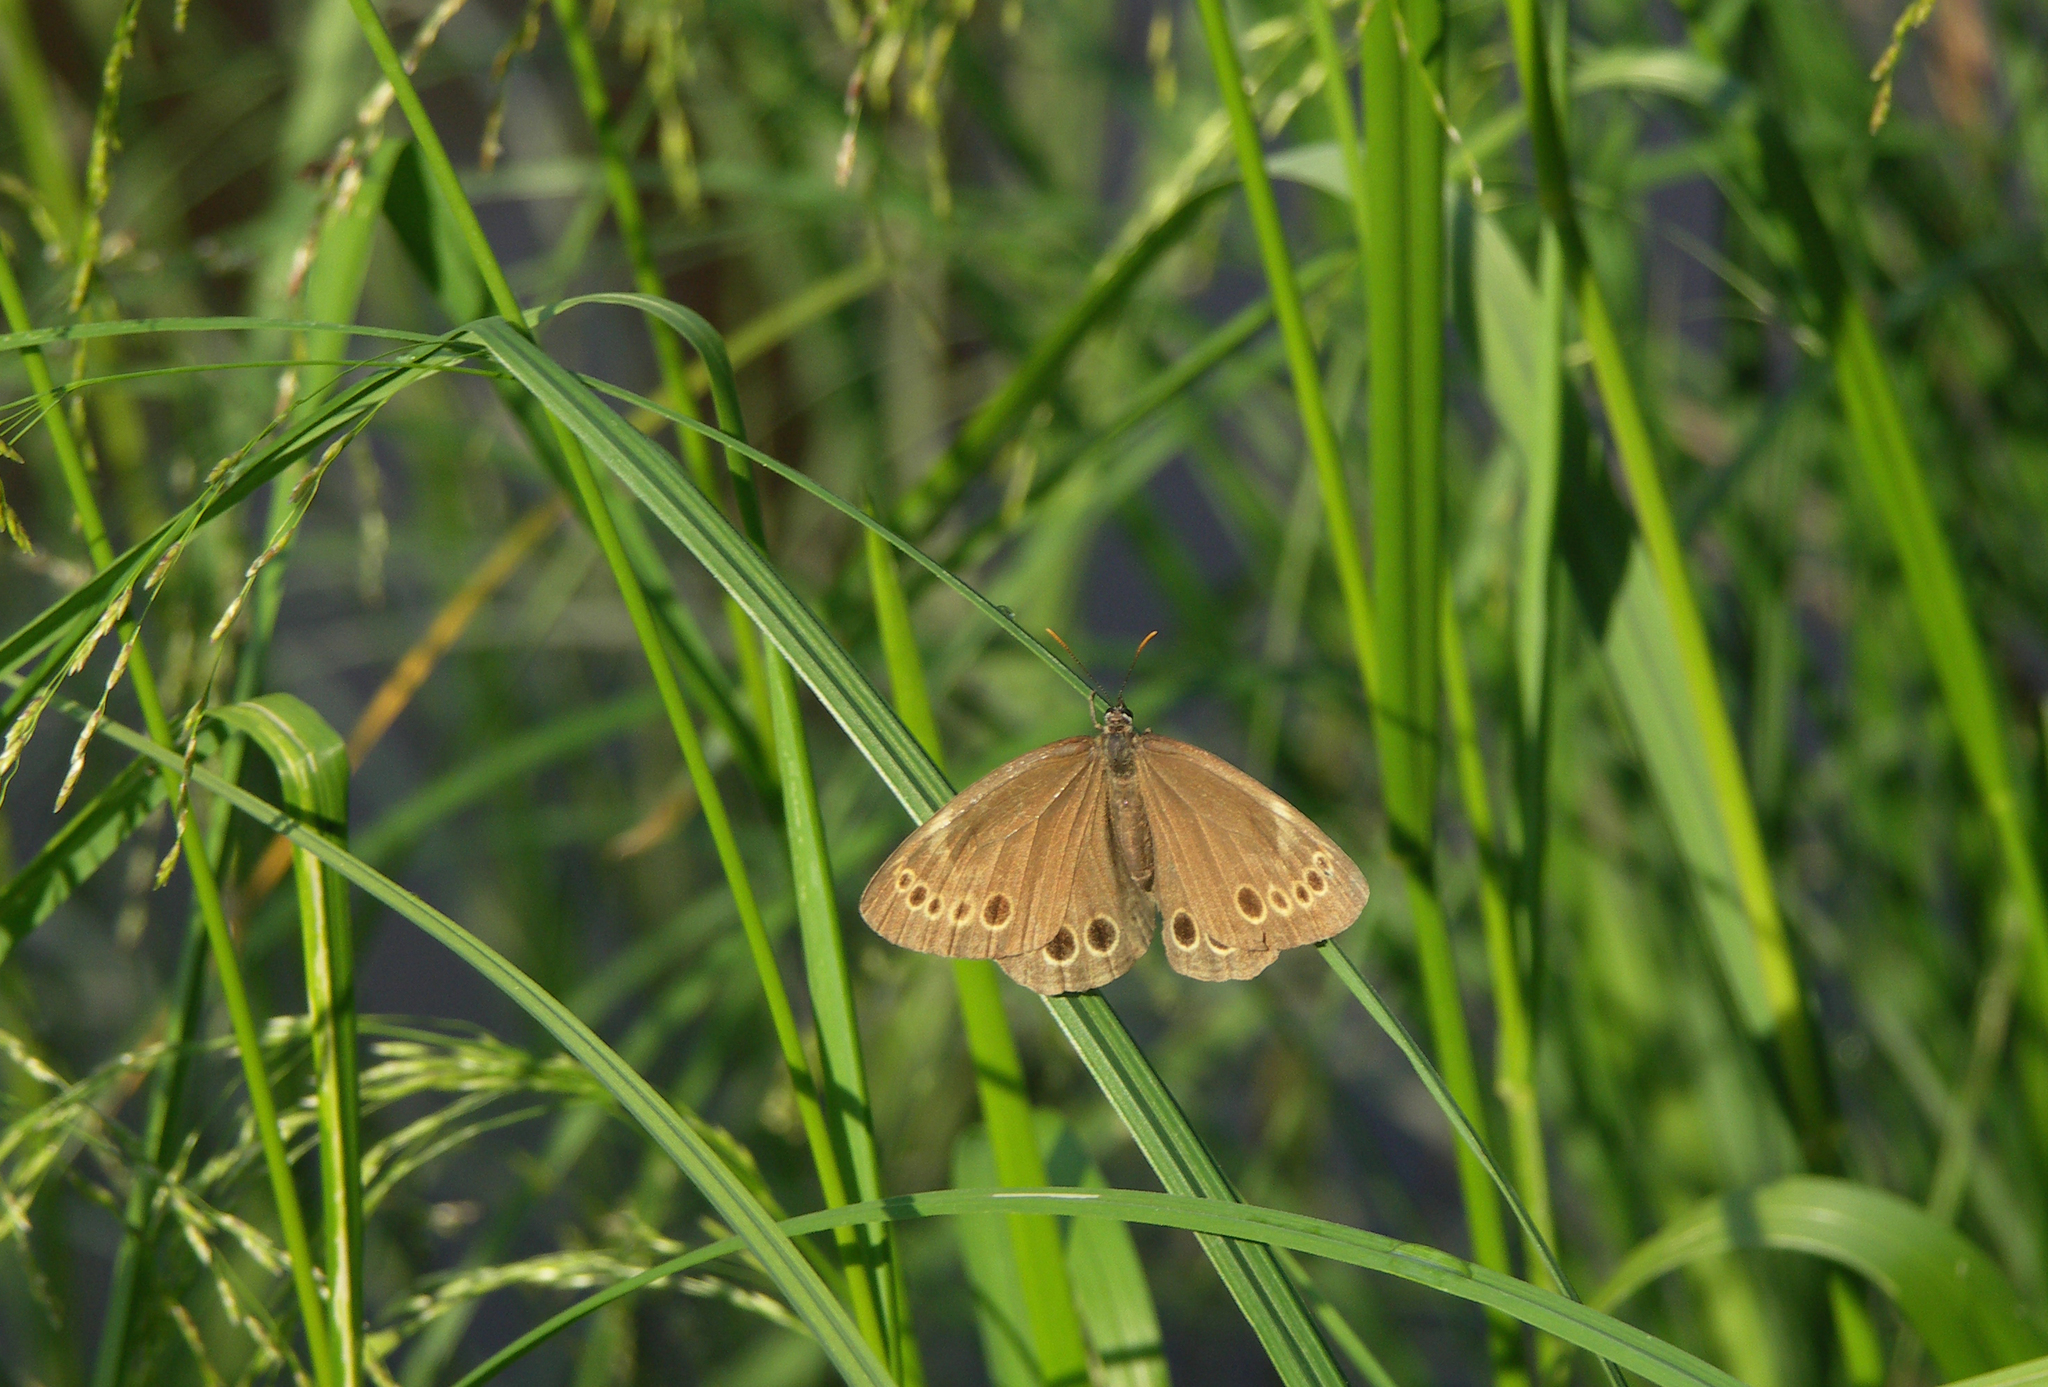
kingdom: Animalia
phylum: Arthropoda
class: Insecta
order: Lepidoptera
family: Nymphalidae
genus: Pararge
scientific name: Pararge Lopinga achine
